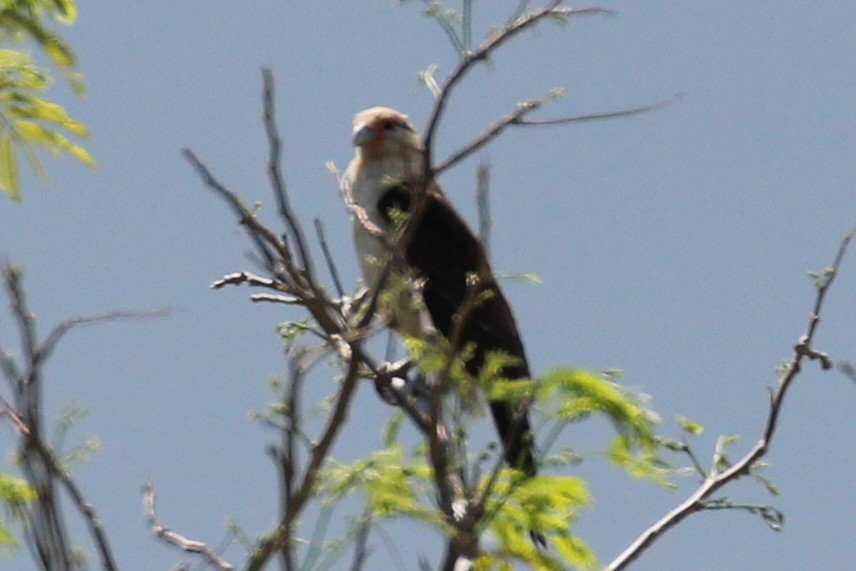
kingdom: Animalia
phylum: Chordata
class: Aves
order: Falconiformes
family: Falconidae
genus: Daptrius
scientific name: Daptrius
